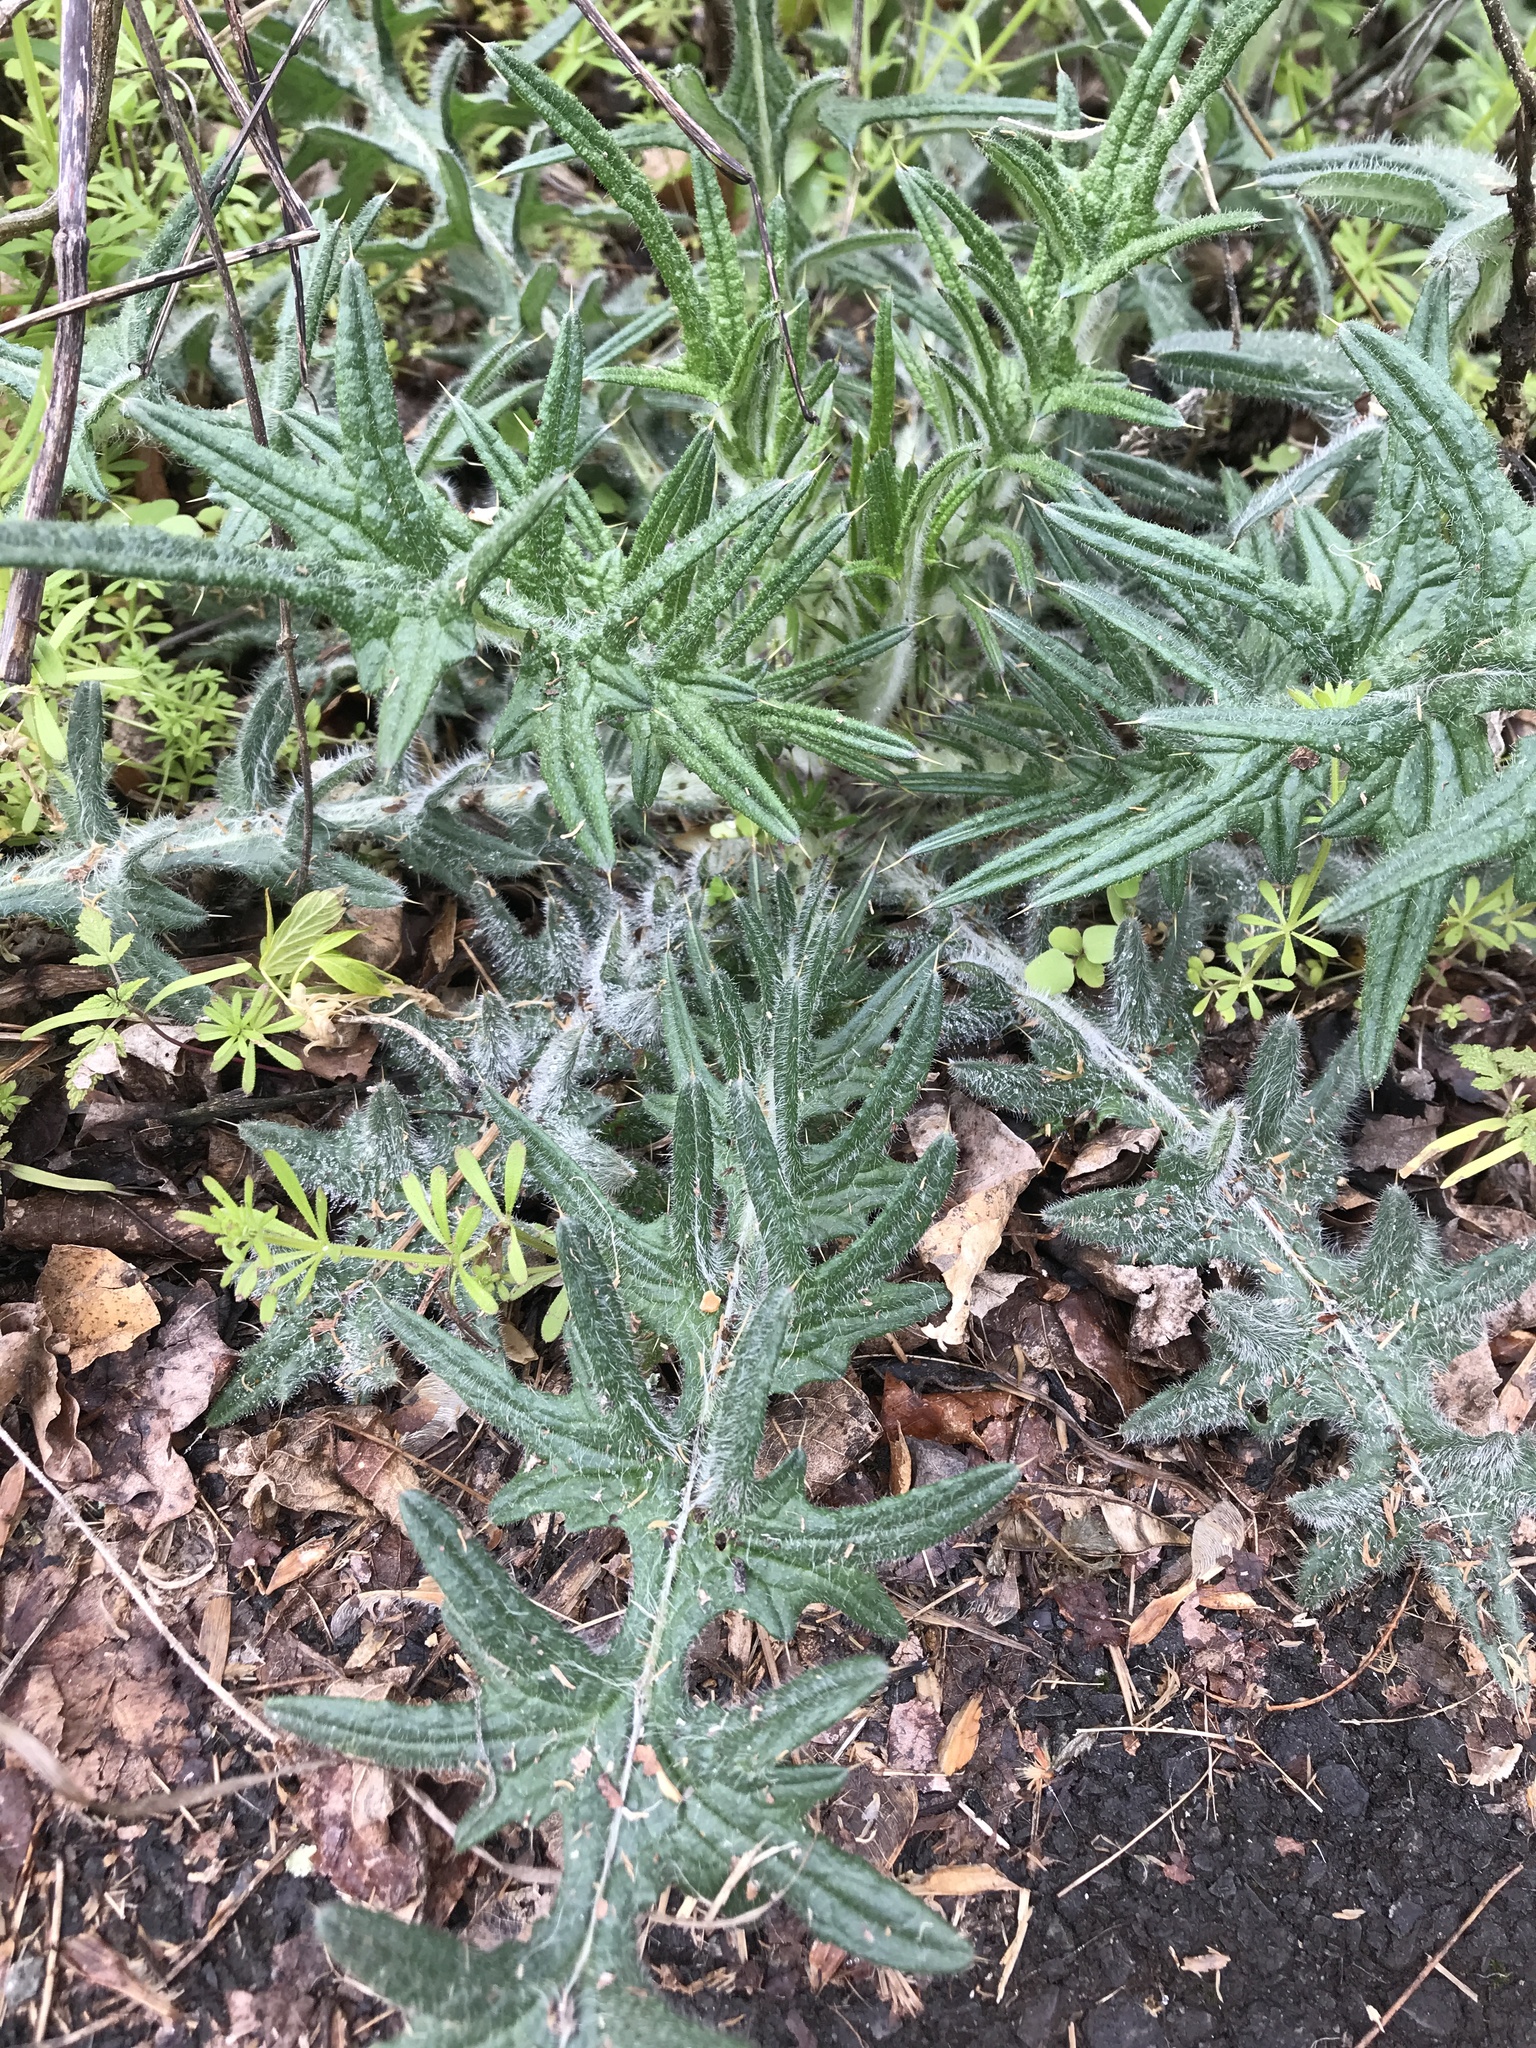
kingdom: Plantae
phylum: Tracheophyta
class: Magnoliopsida
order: Asterales
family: Asteraceae
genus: Cirsium
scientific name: Cirsium vulgare
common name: Bull thistle
